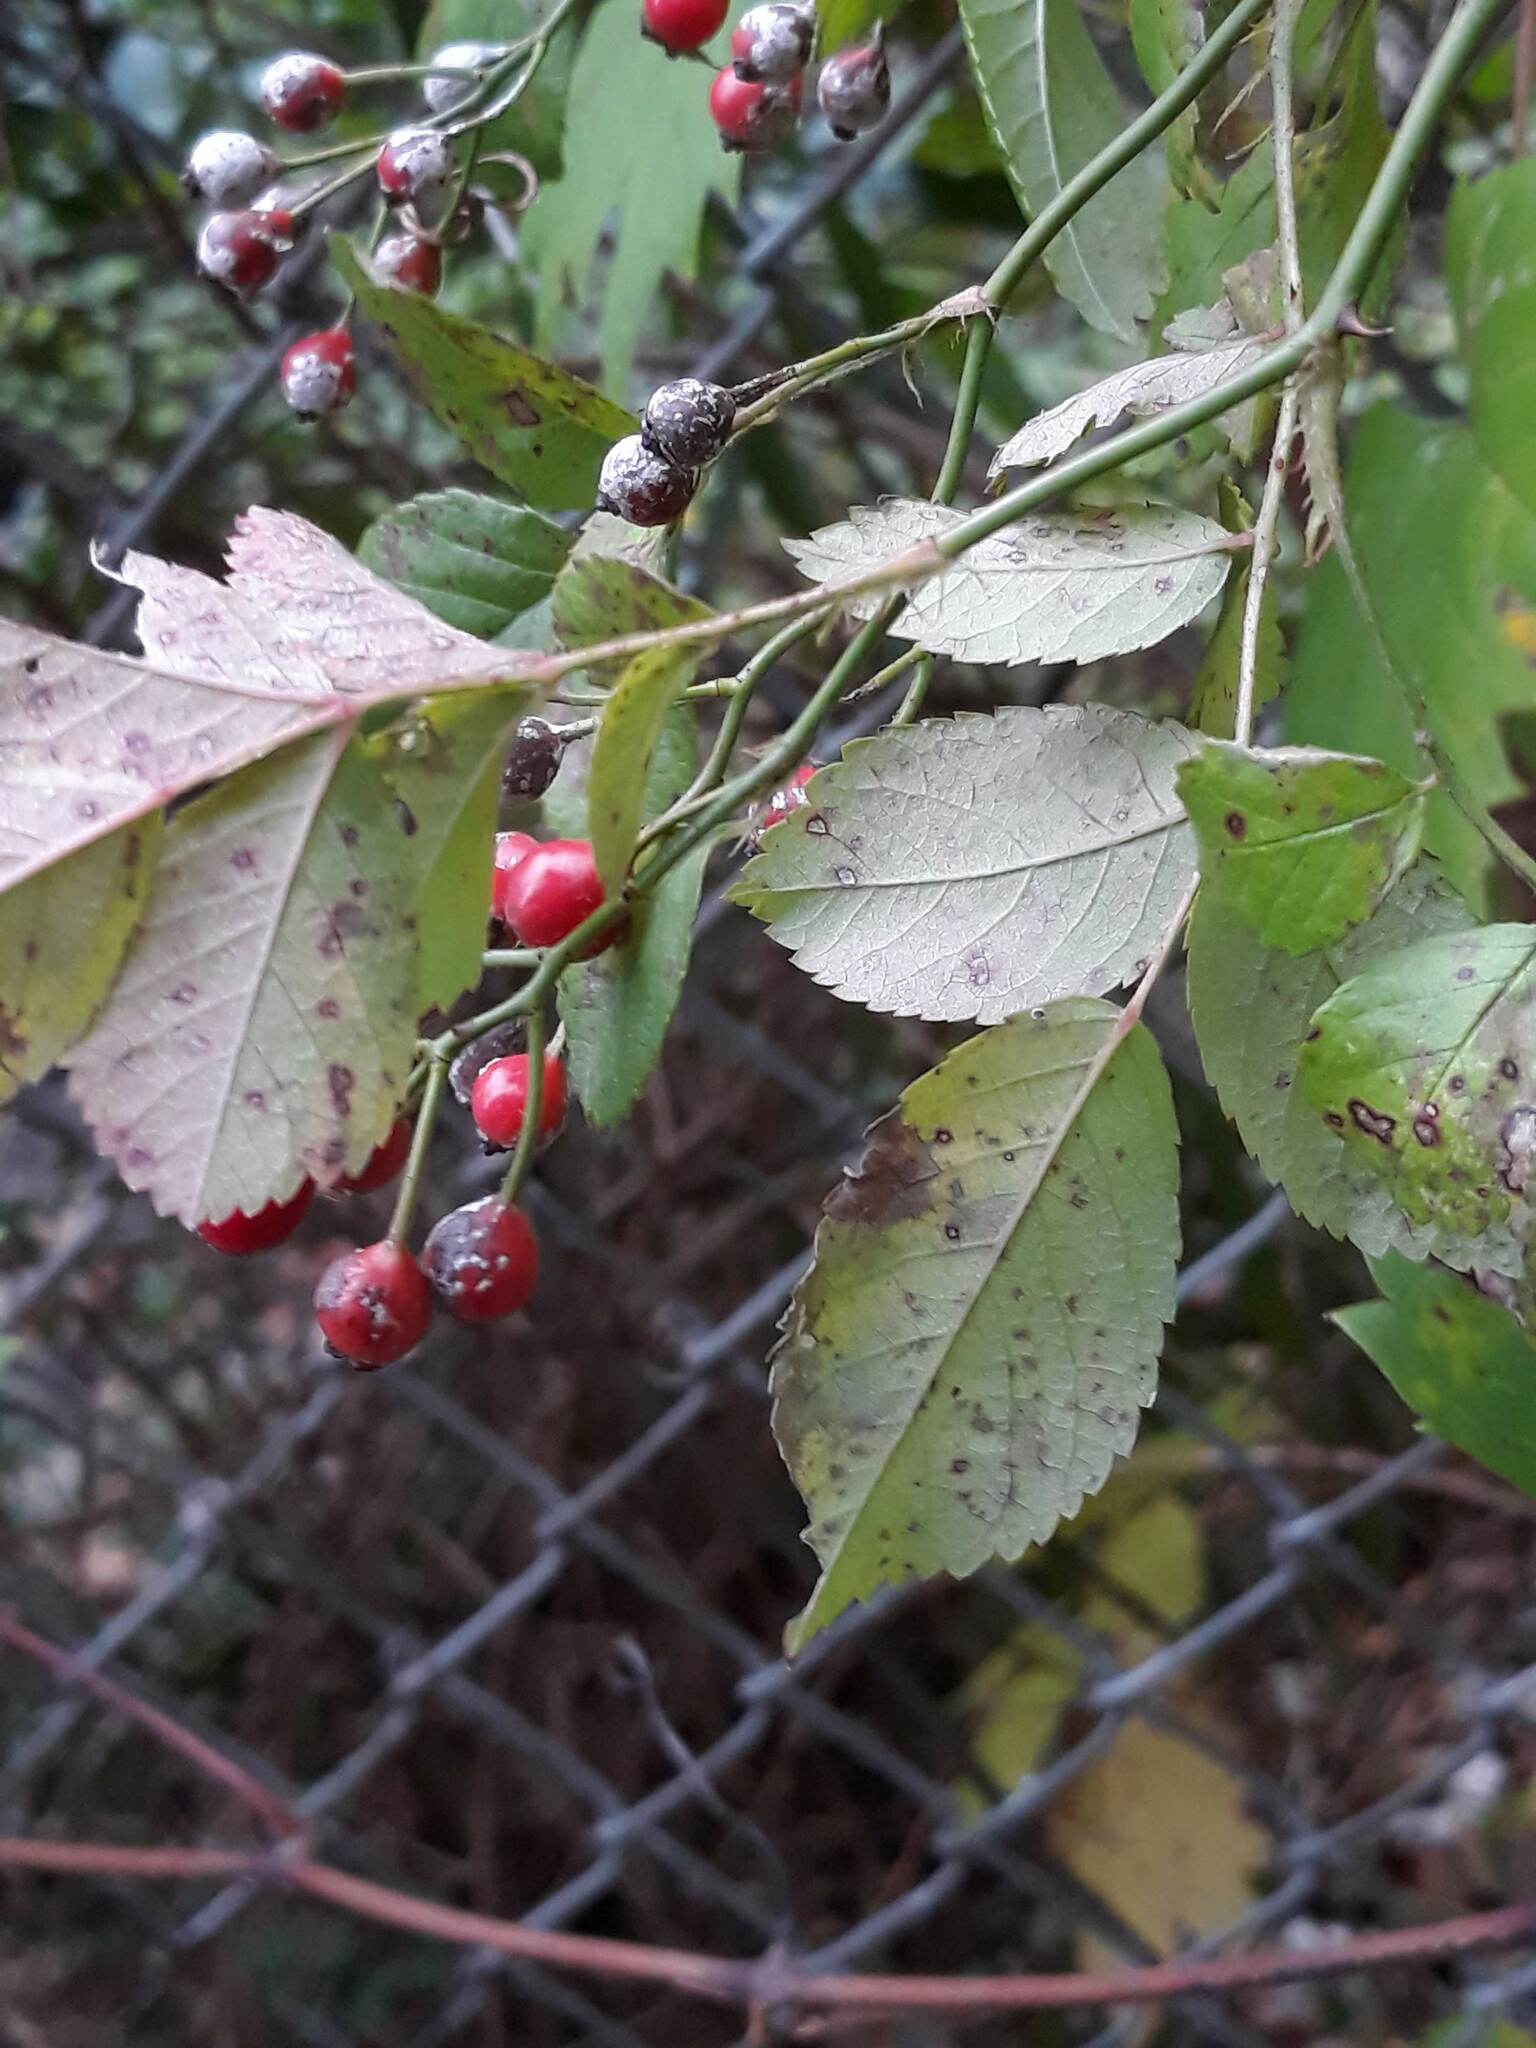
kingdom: Plantae
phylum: Tracheophyta
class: Magnoliopsida
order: Rosales
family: Rosaceae
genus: Rosa
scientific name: Rosa multiflora
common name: Multiflora rose
